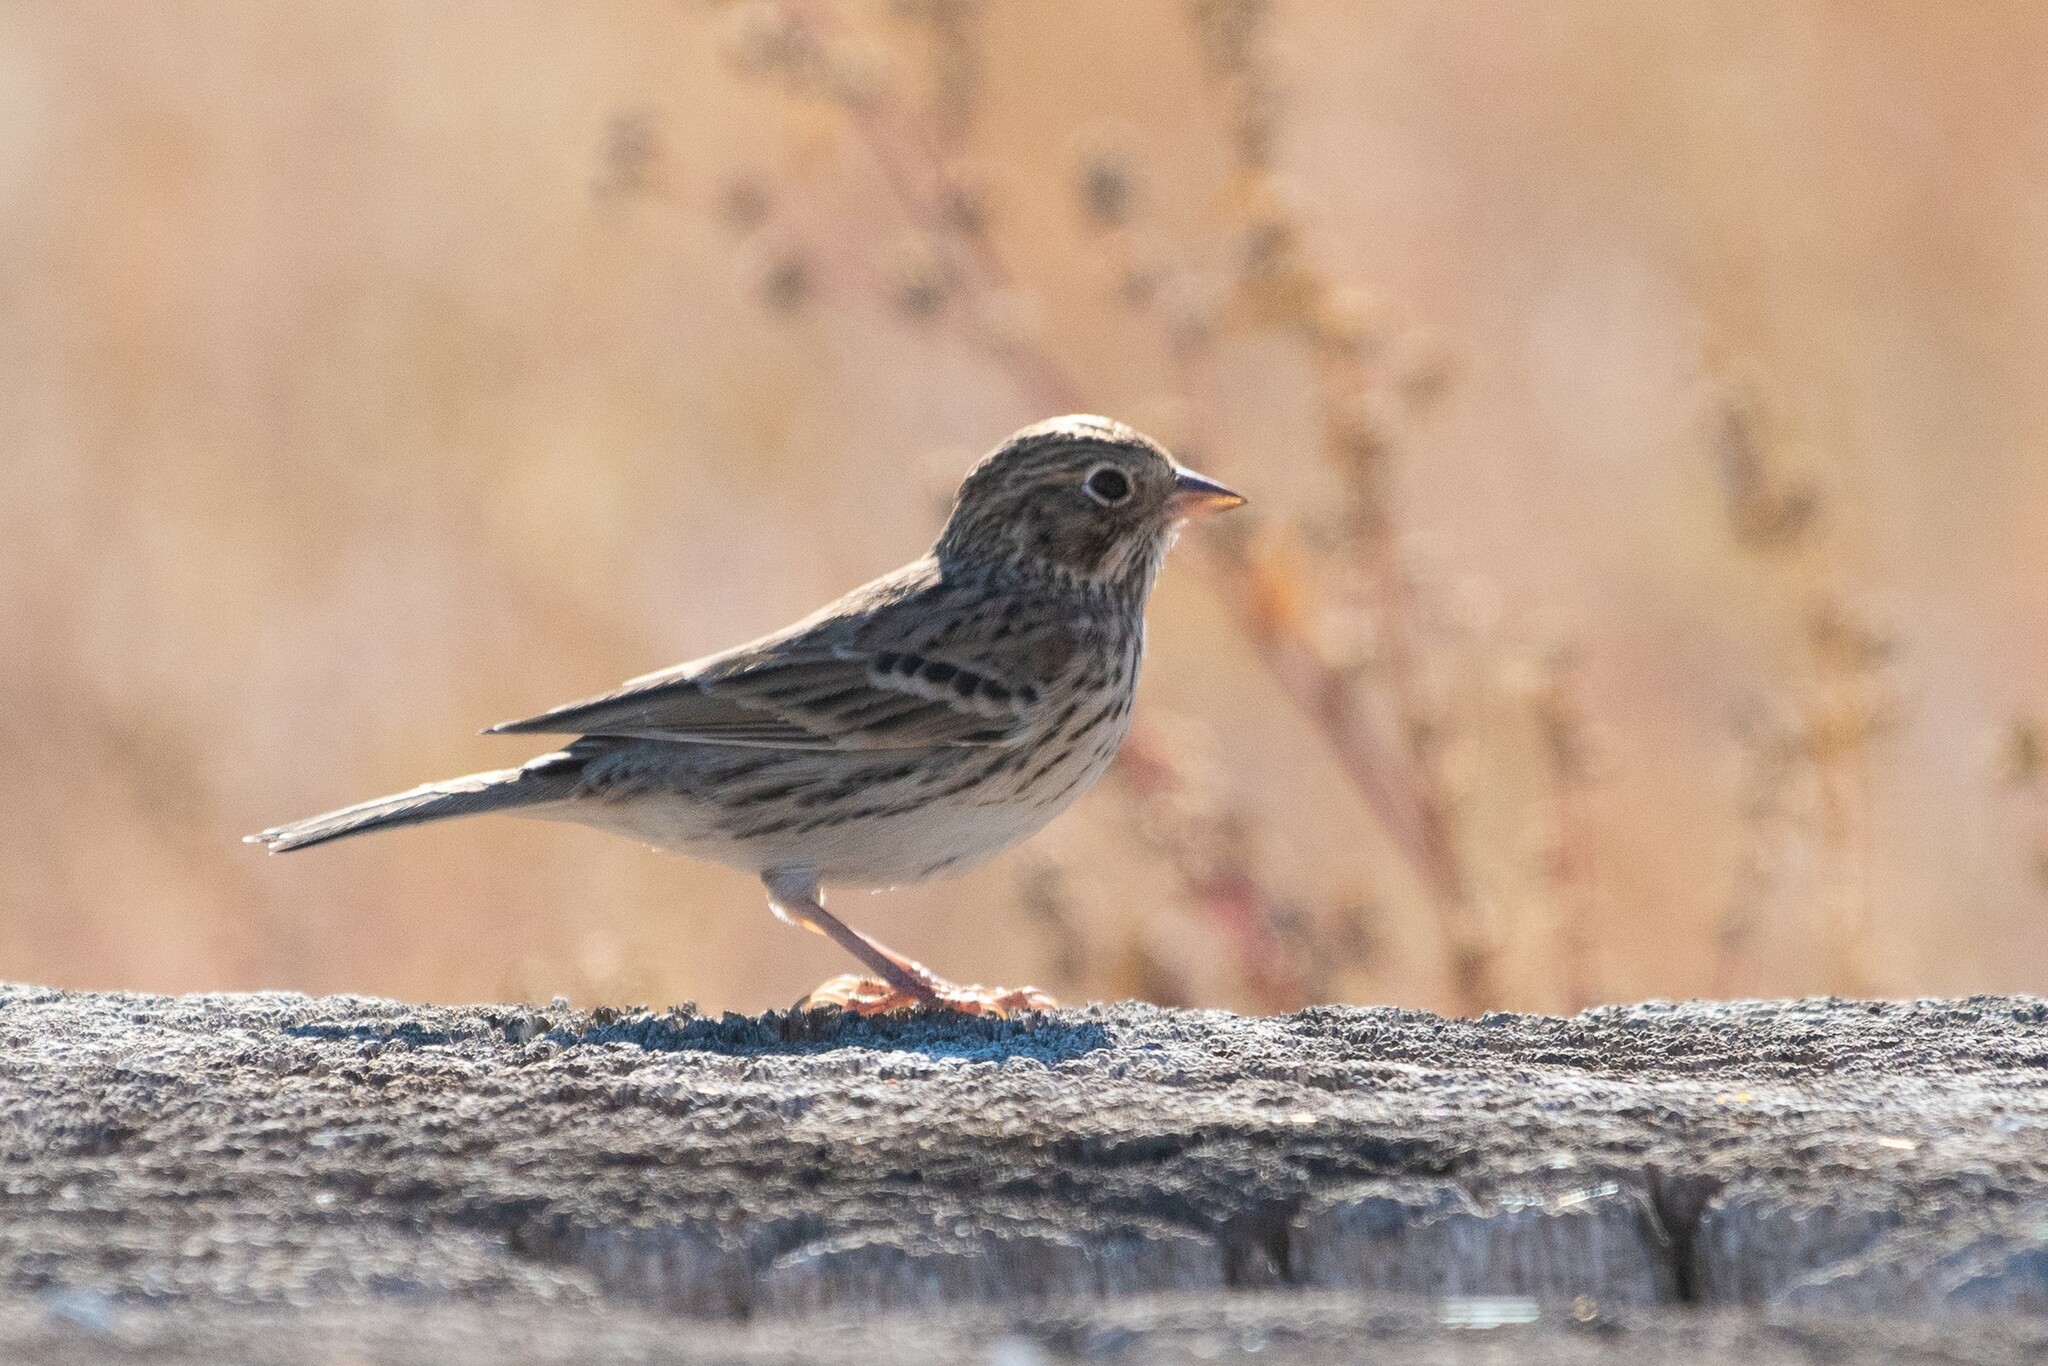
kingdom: Animalia
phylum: Chordata
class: Aves
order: Passeriformes
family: Passerellidae
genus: Pooecetes
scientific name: Pooecetes gramineus
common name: Vesper sparrow
